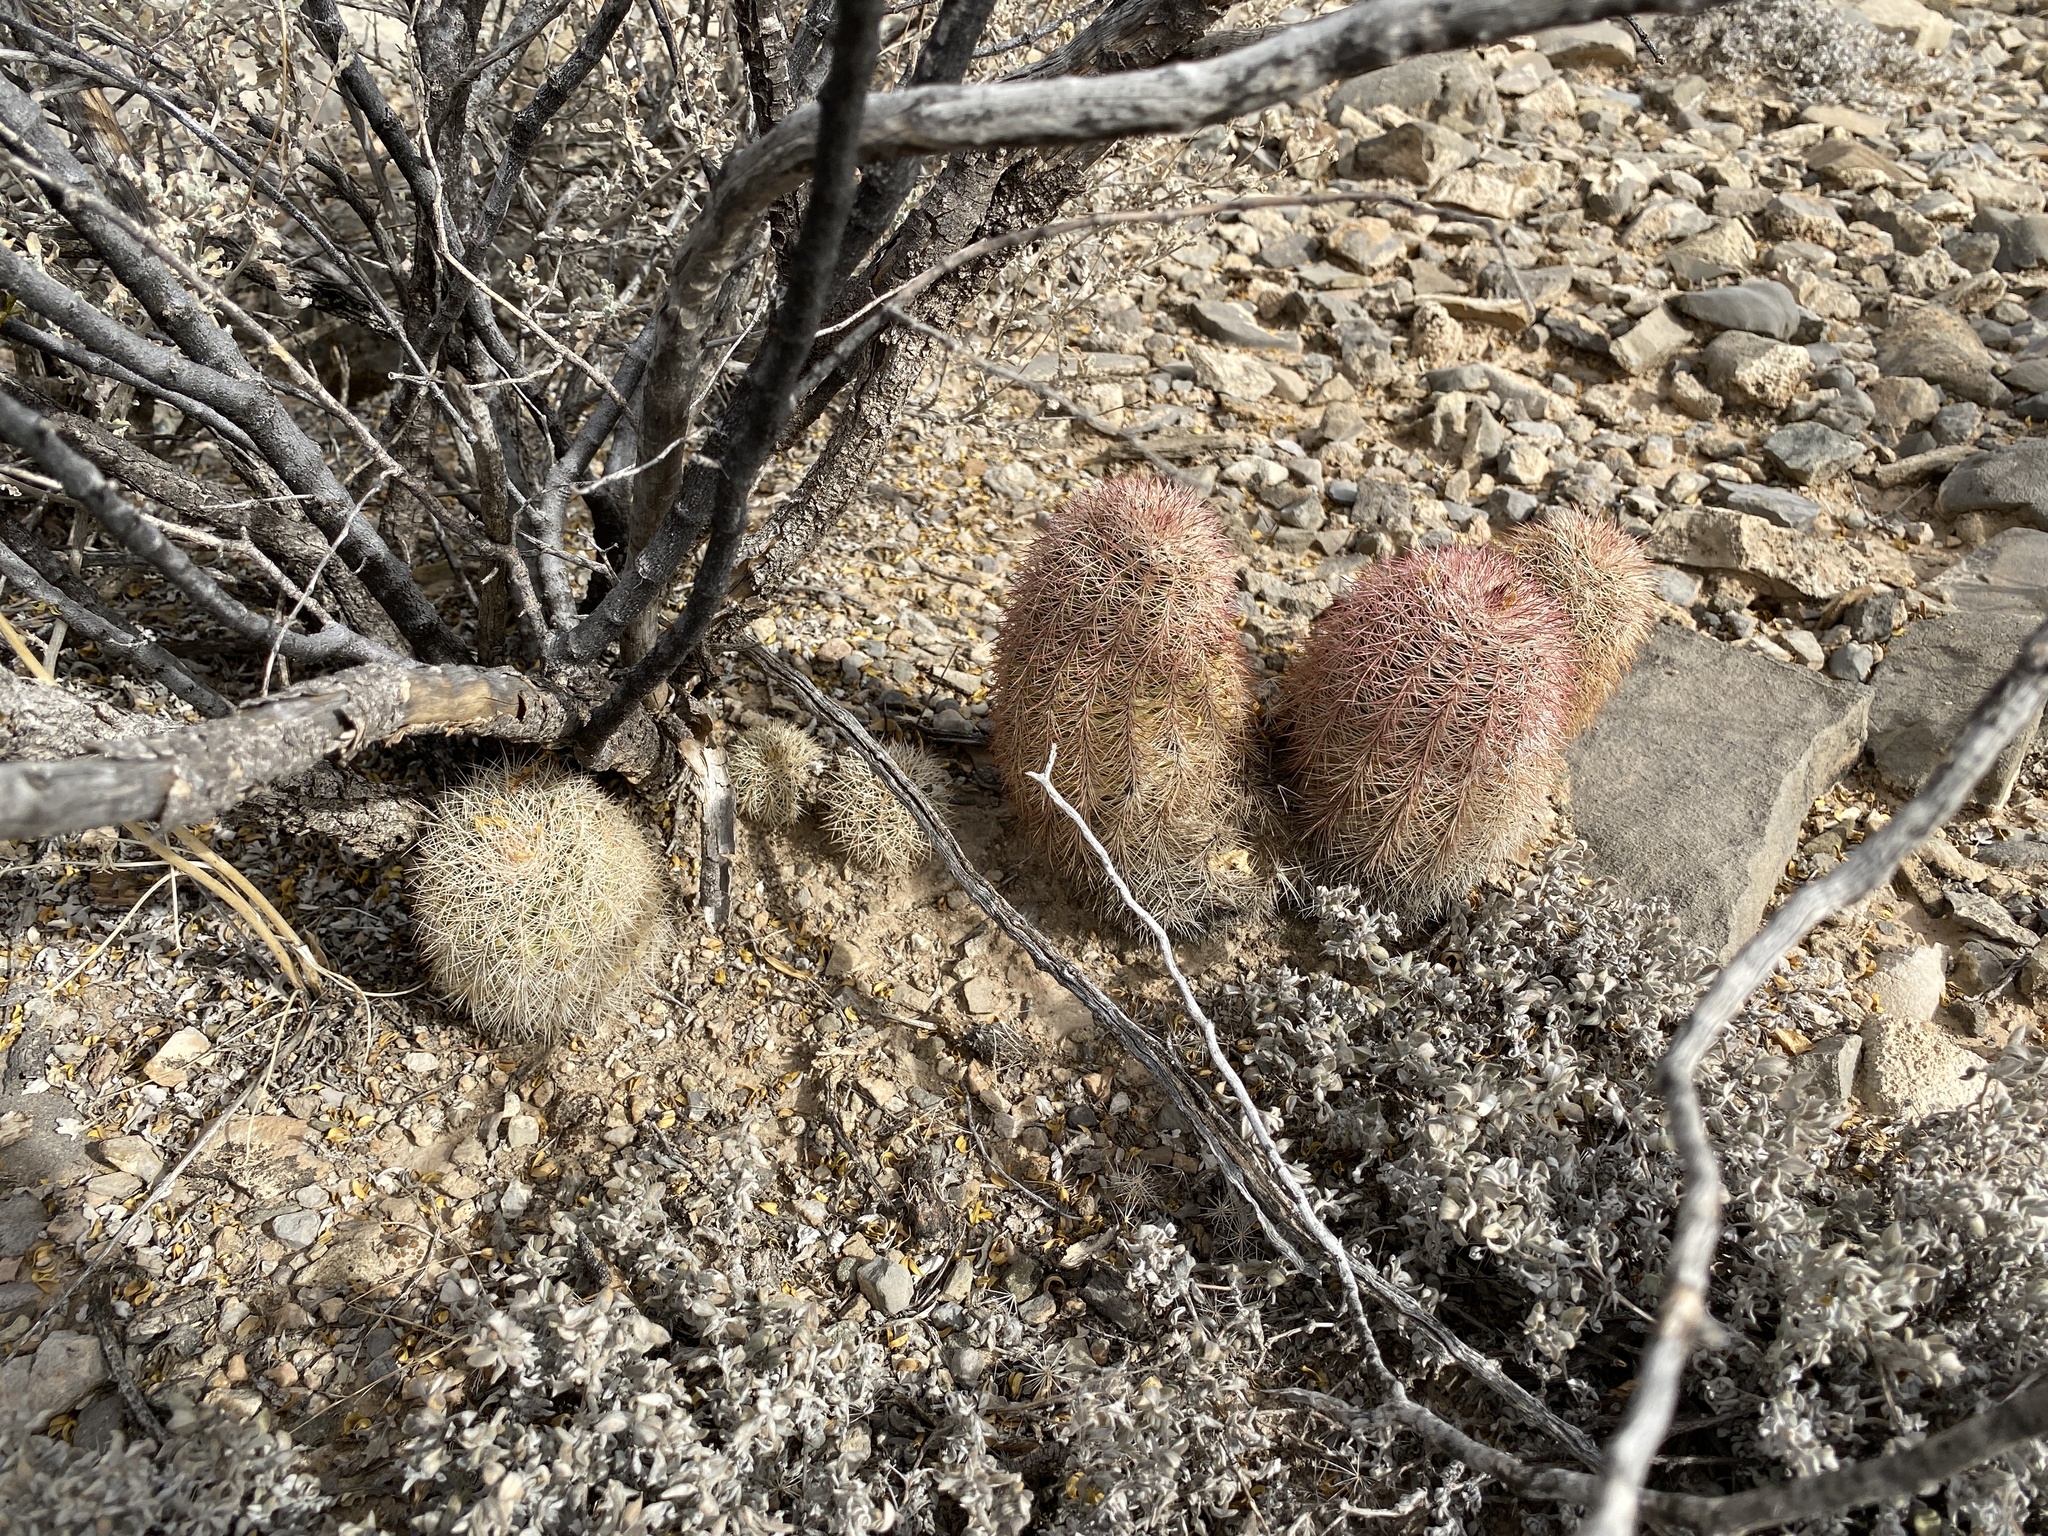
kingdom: Plantae
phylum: Tracheophyta
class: Magnoliopsida
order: Caryophyllales
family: Cactaceae
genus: Echinocereus
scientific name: Echinocereus dasyacanthus
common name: Spiny hedgehog cactus
